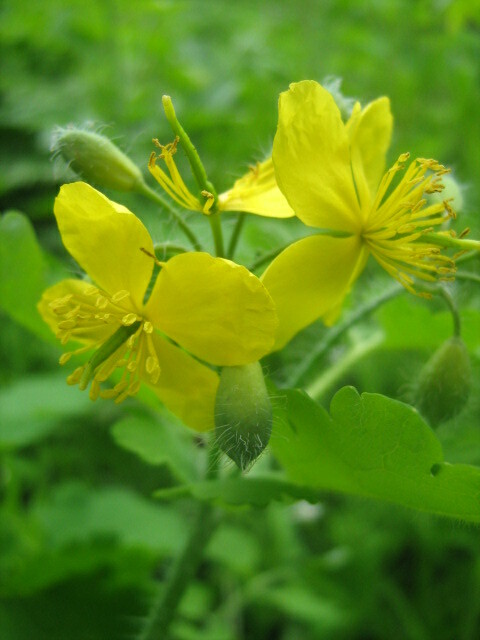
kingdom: Plantae
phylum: Tracheophyta
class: Magnoliopsida
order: Ranunculales
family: Papaveraceae
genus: Chelidonium
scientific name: Chelidonium majus
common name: Greater celandine
